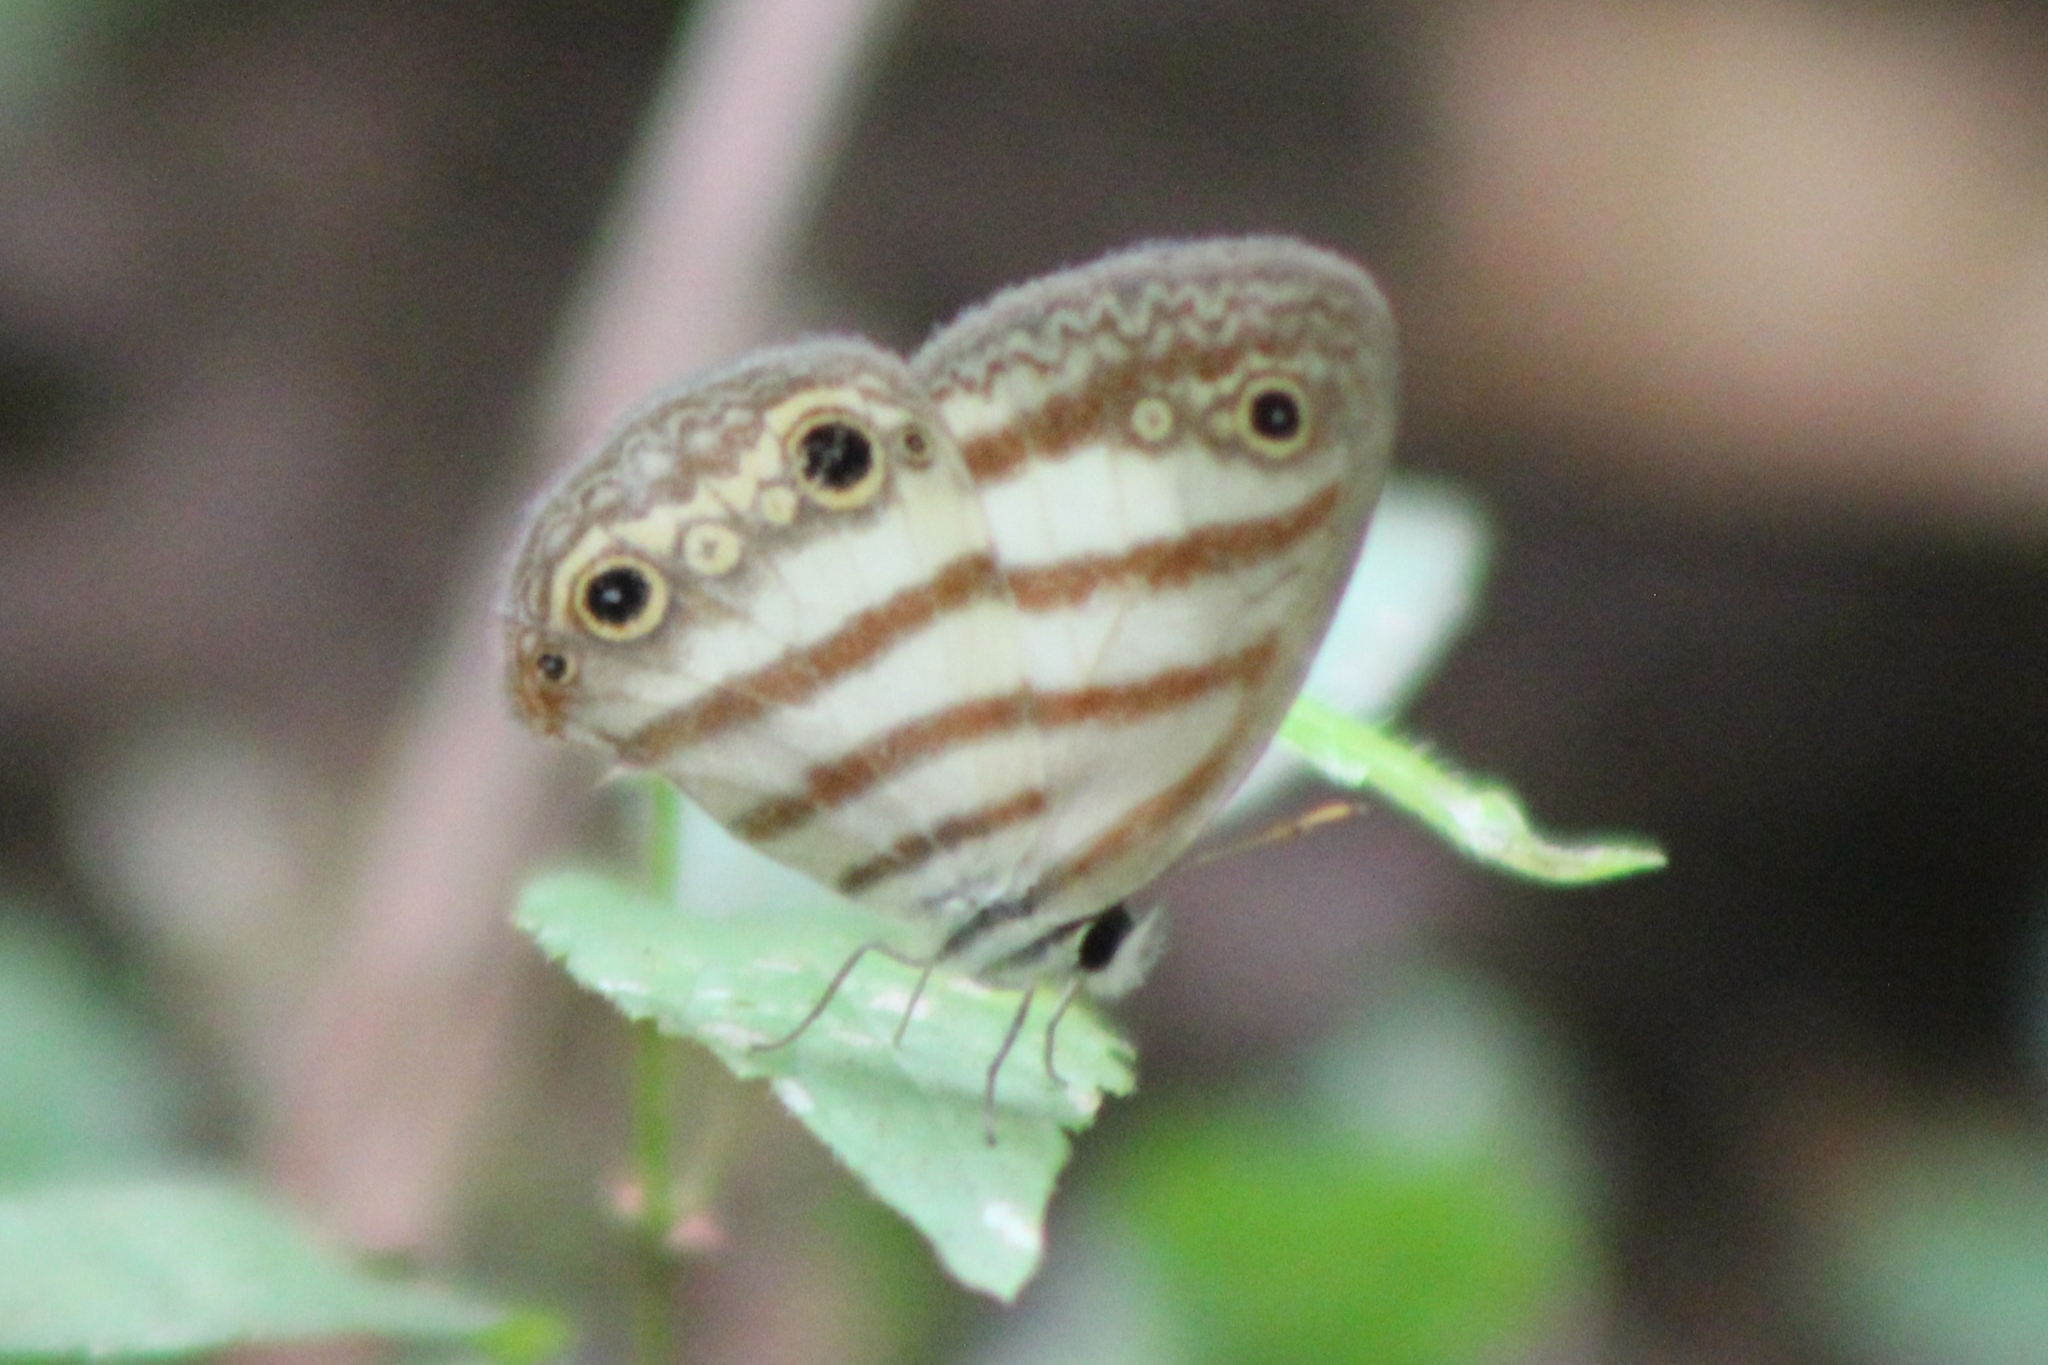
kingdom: Animalia
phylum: Arthropoda
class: Insecta
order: Lepidoptera
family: Nymphalidae
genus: Pareuptychia
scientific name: Pareuptychia hesione
